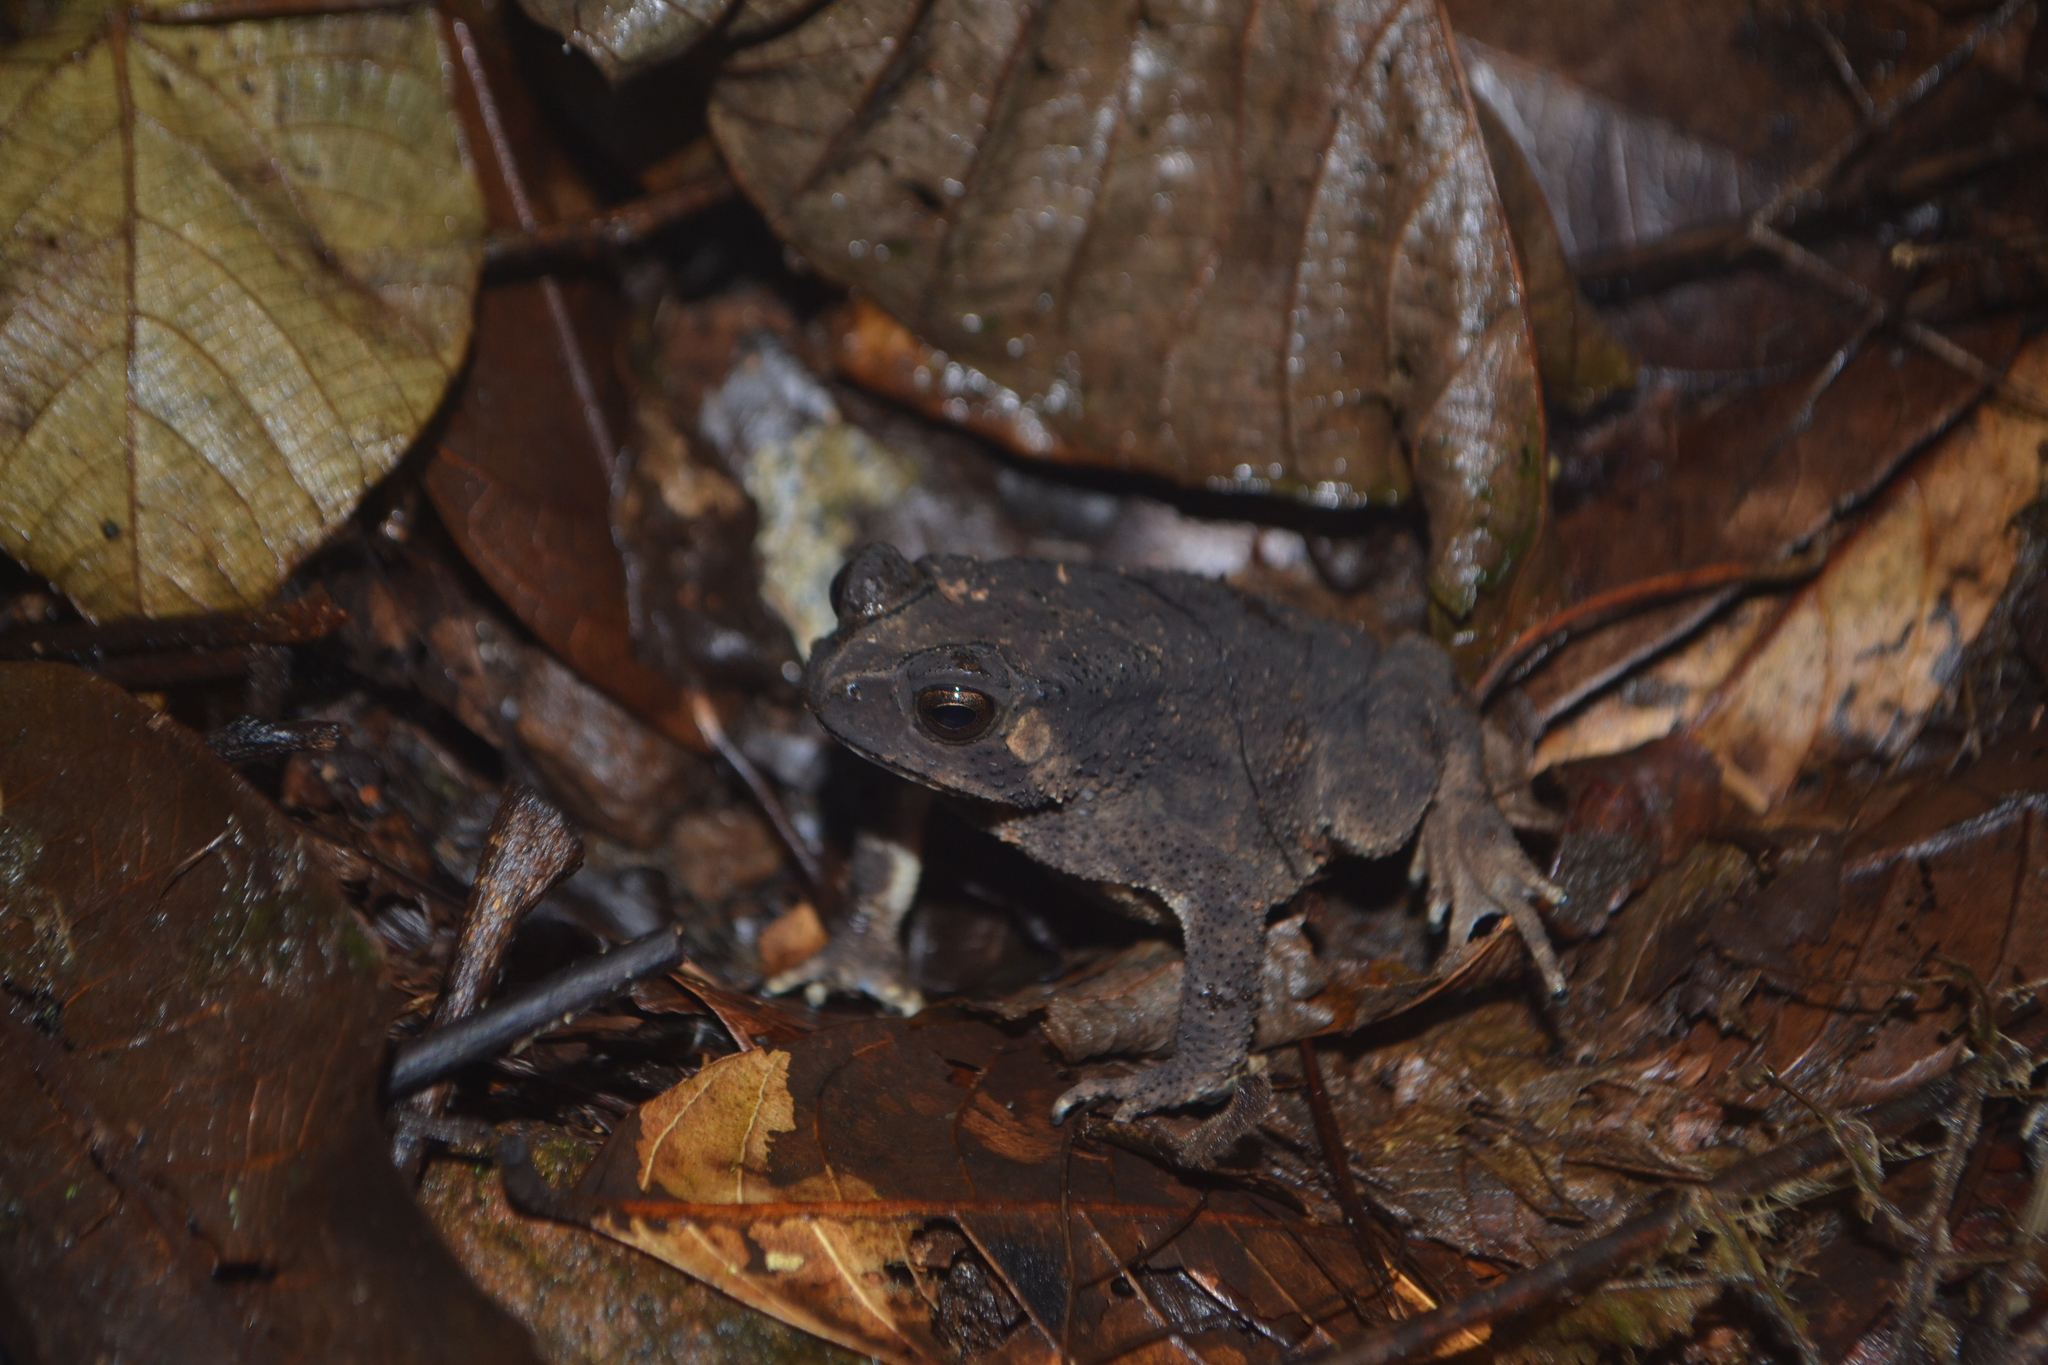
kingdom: Animalia
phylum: Chordata
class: Amphibia
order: Anura
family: Bufonidae
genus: Duttaphrynus
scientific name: Duttaphrynus parietalis
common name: Indian toad
